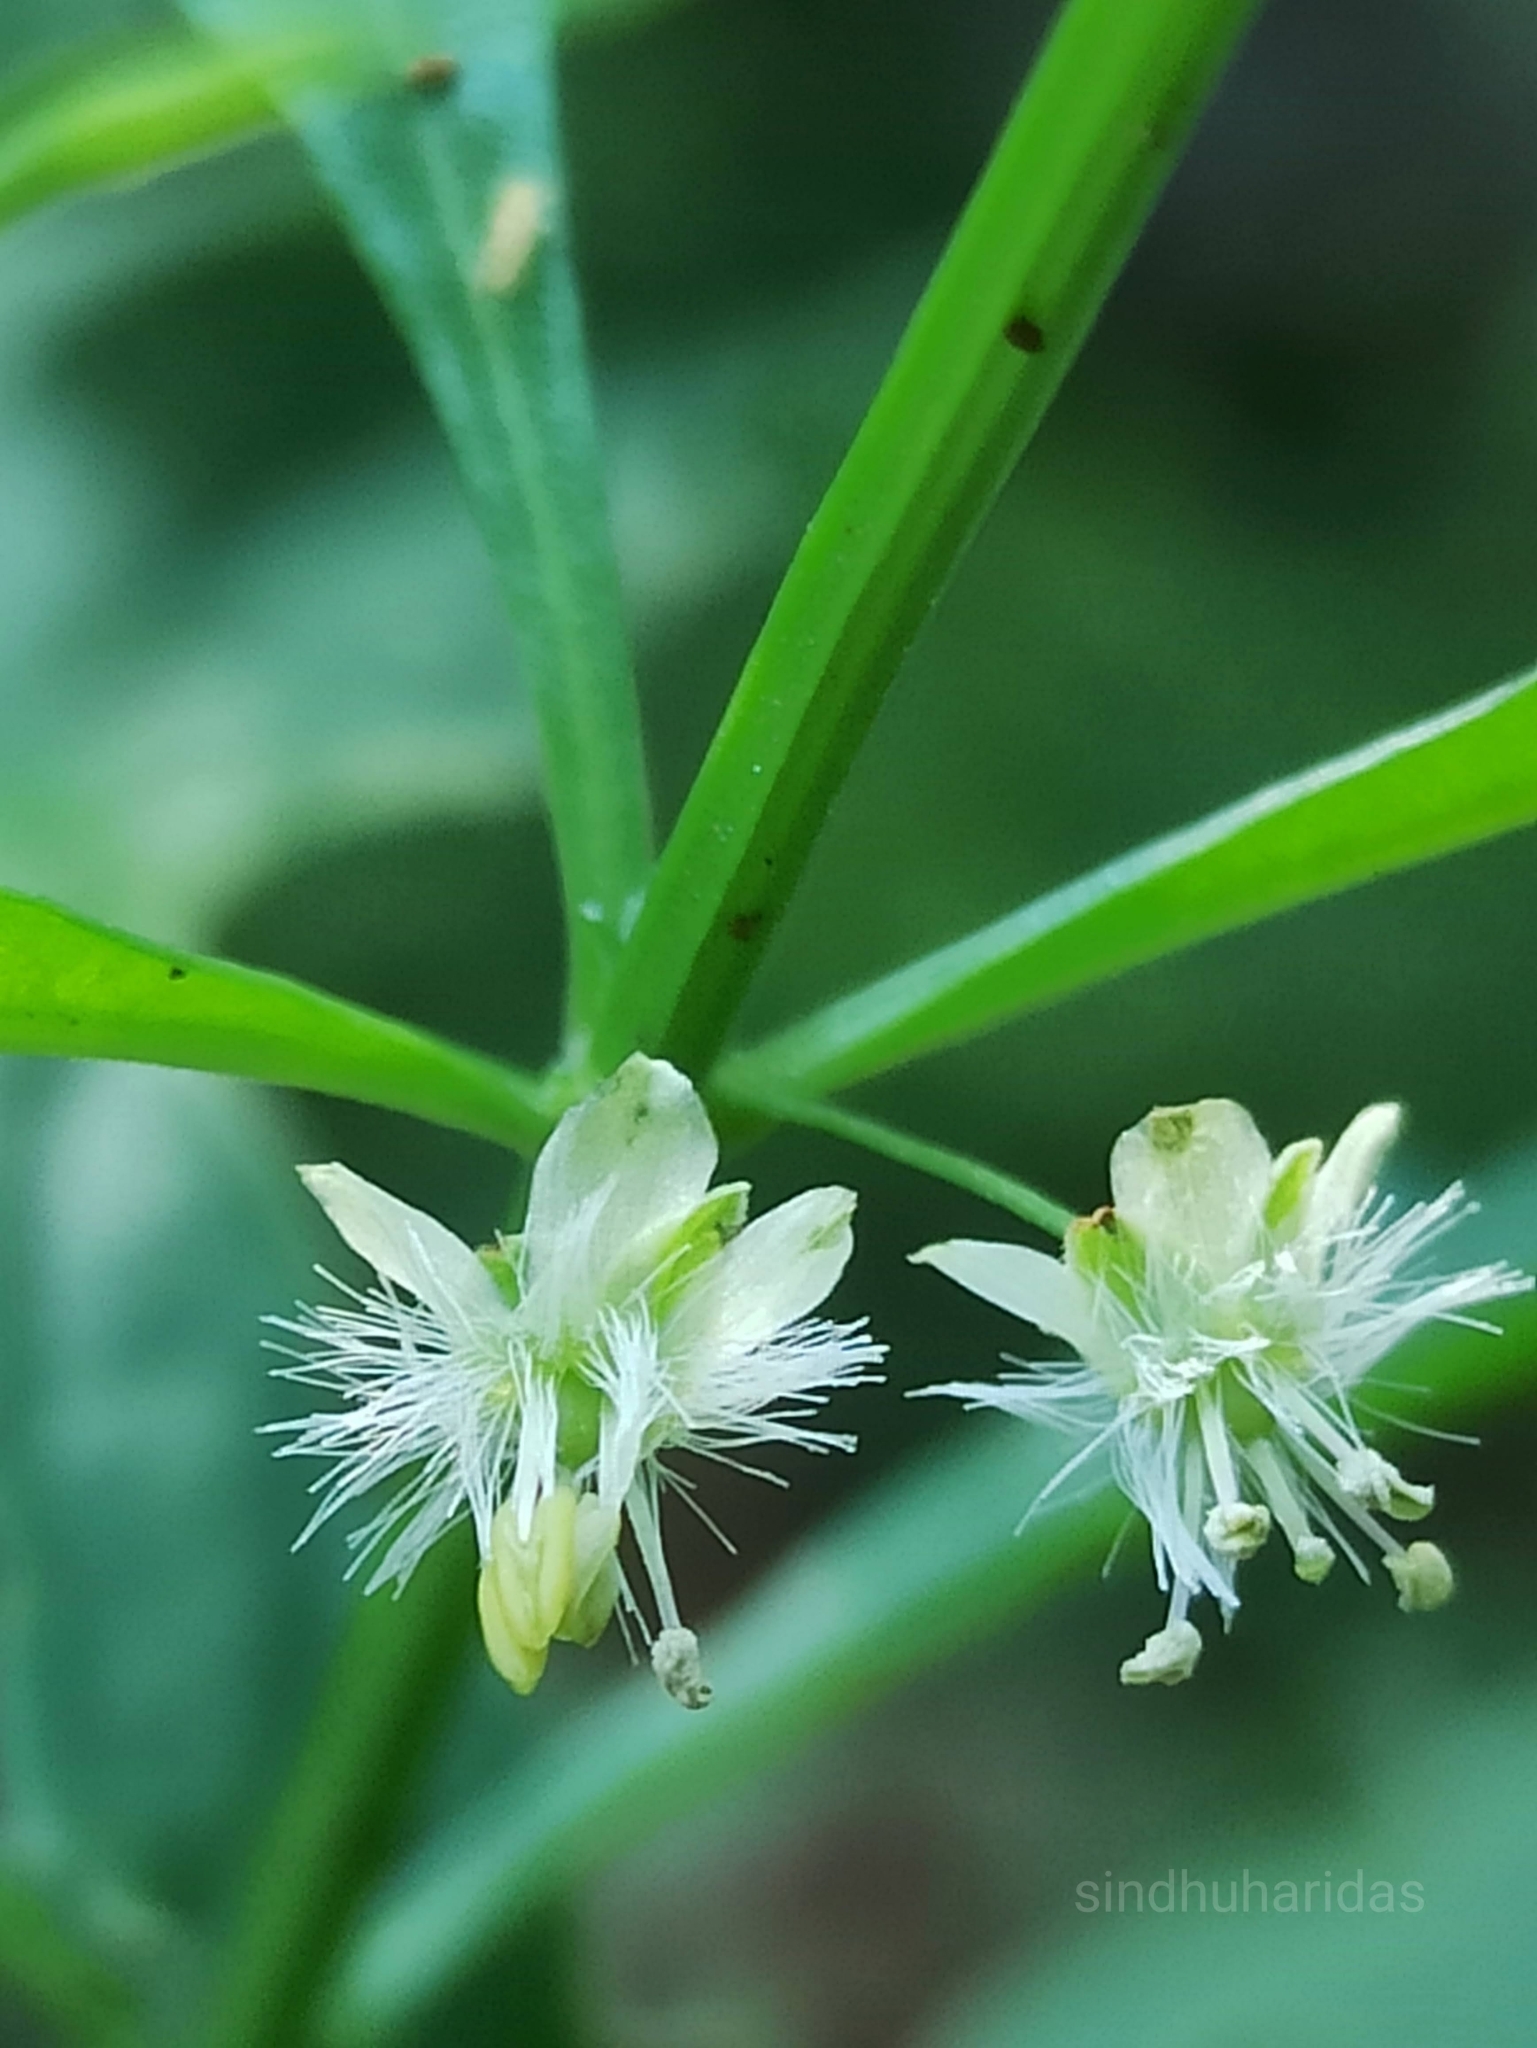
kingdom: Plantae
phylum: Tracheophyta
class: Magnoliopsida
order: Lamiales
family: Plantaginaceae
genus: Scoparia
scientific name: Scoparia dulcis
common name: Scoparia-weed
